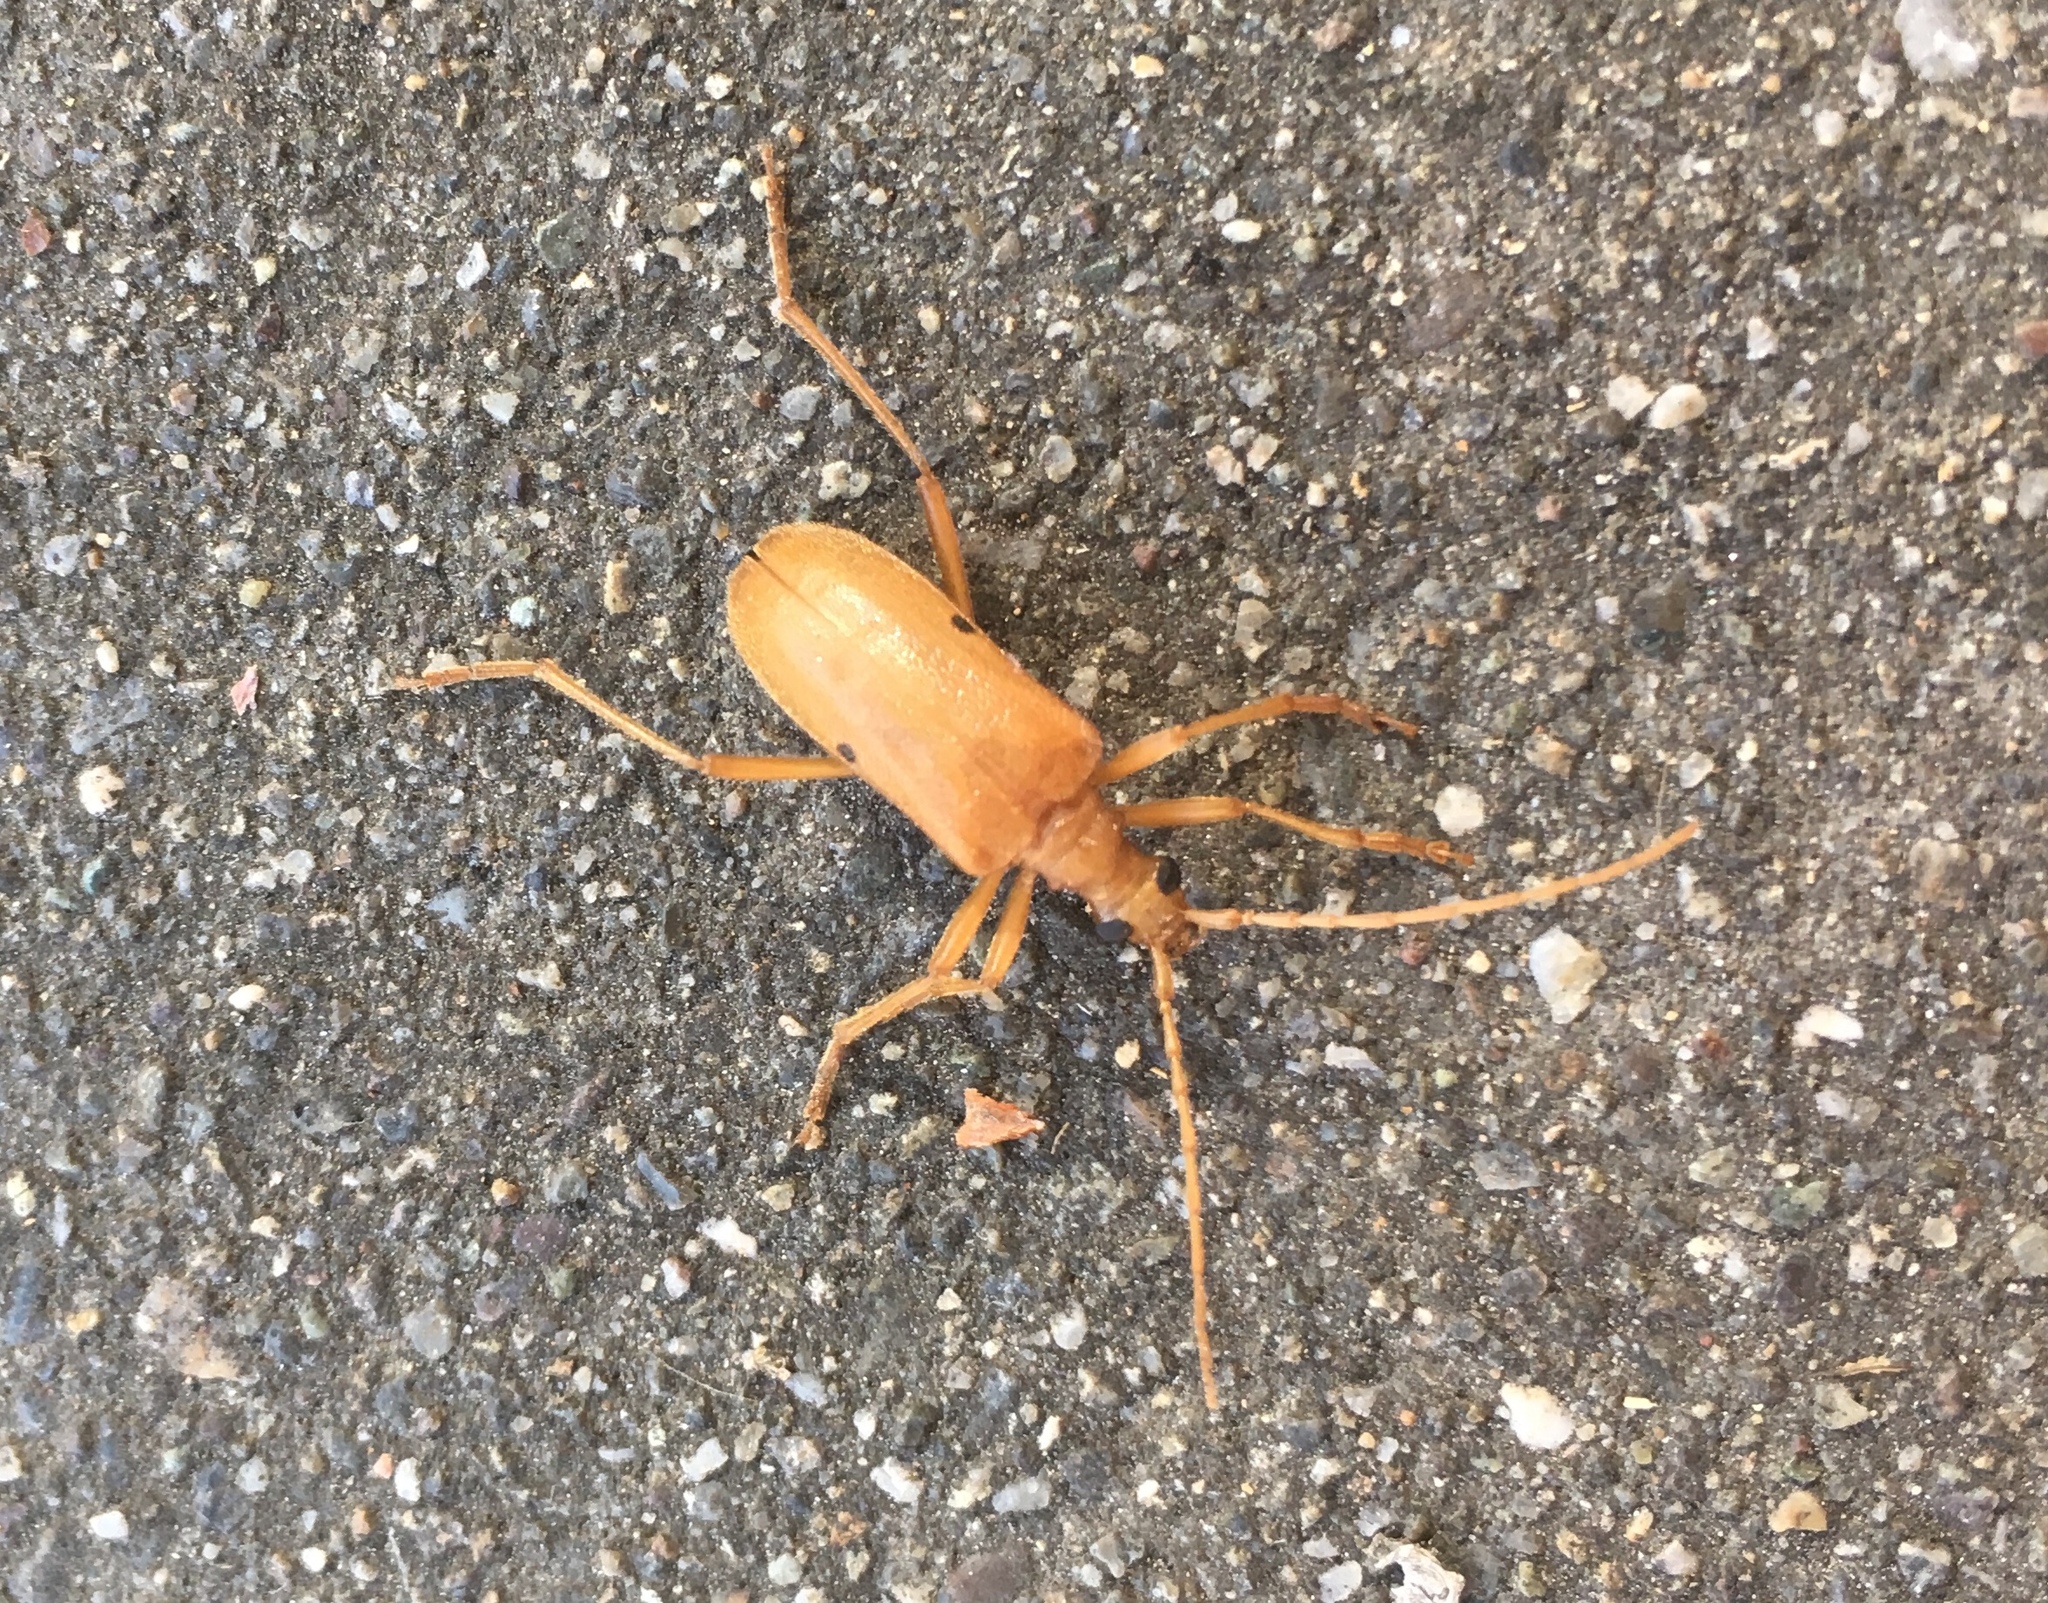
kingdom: Animalia
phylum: Arthropoda
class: Insecta
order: Coleoptera
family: Cerambycidae
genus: Centrodera
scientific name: Centrodera spurca
